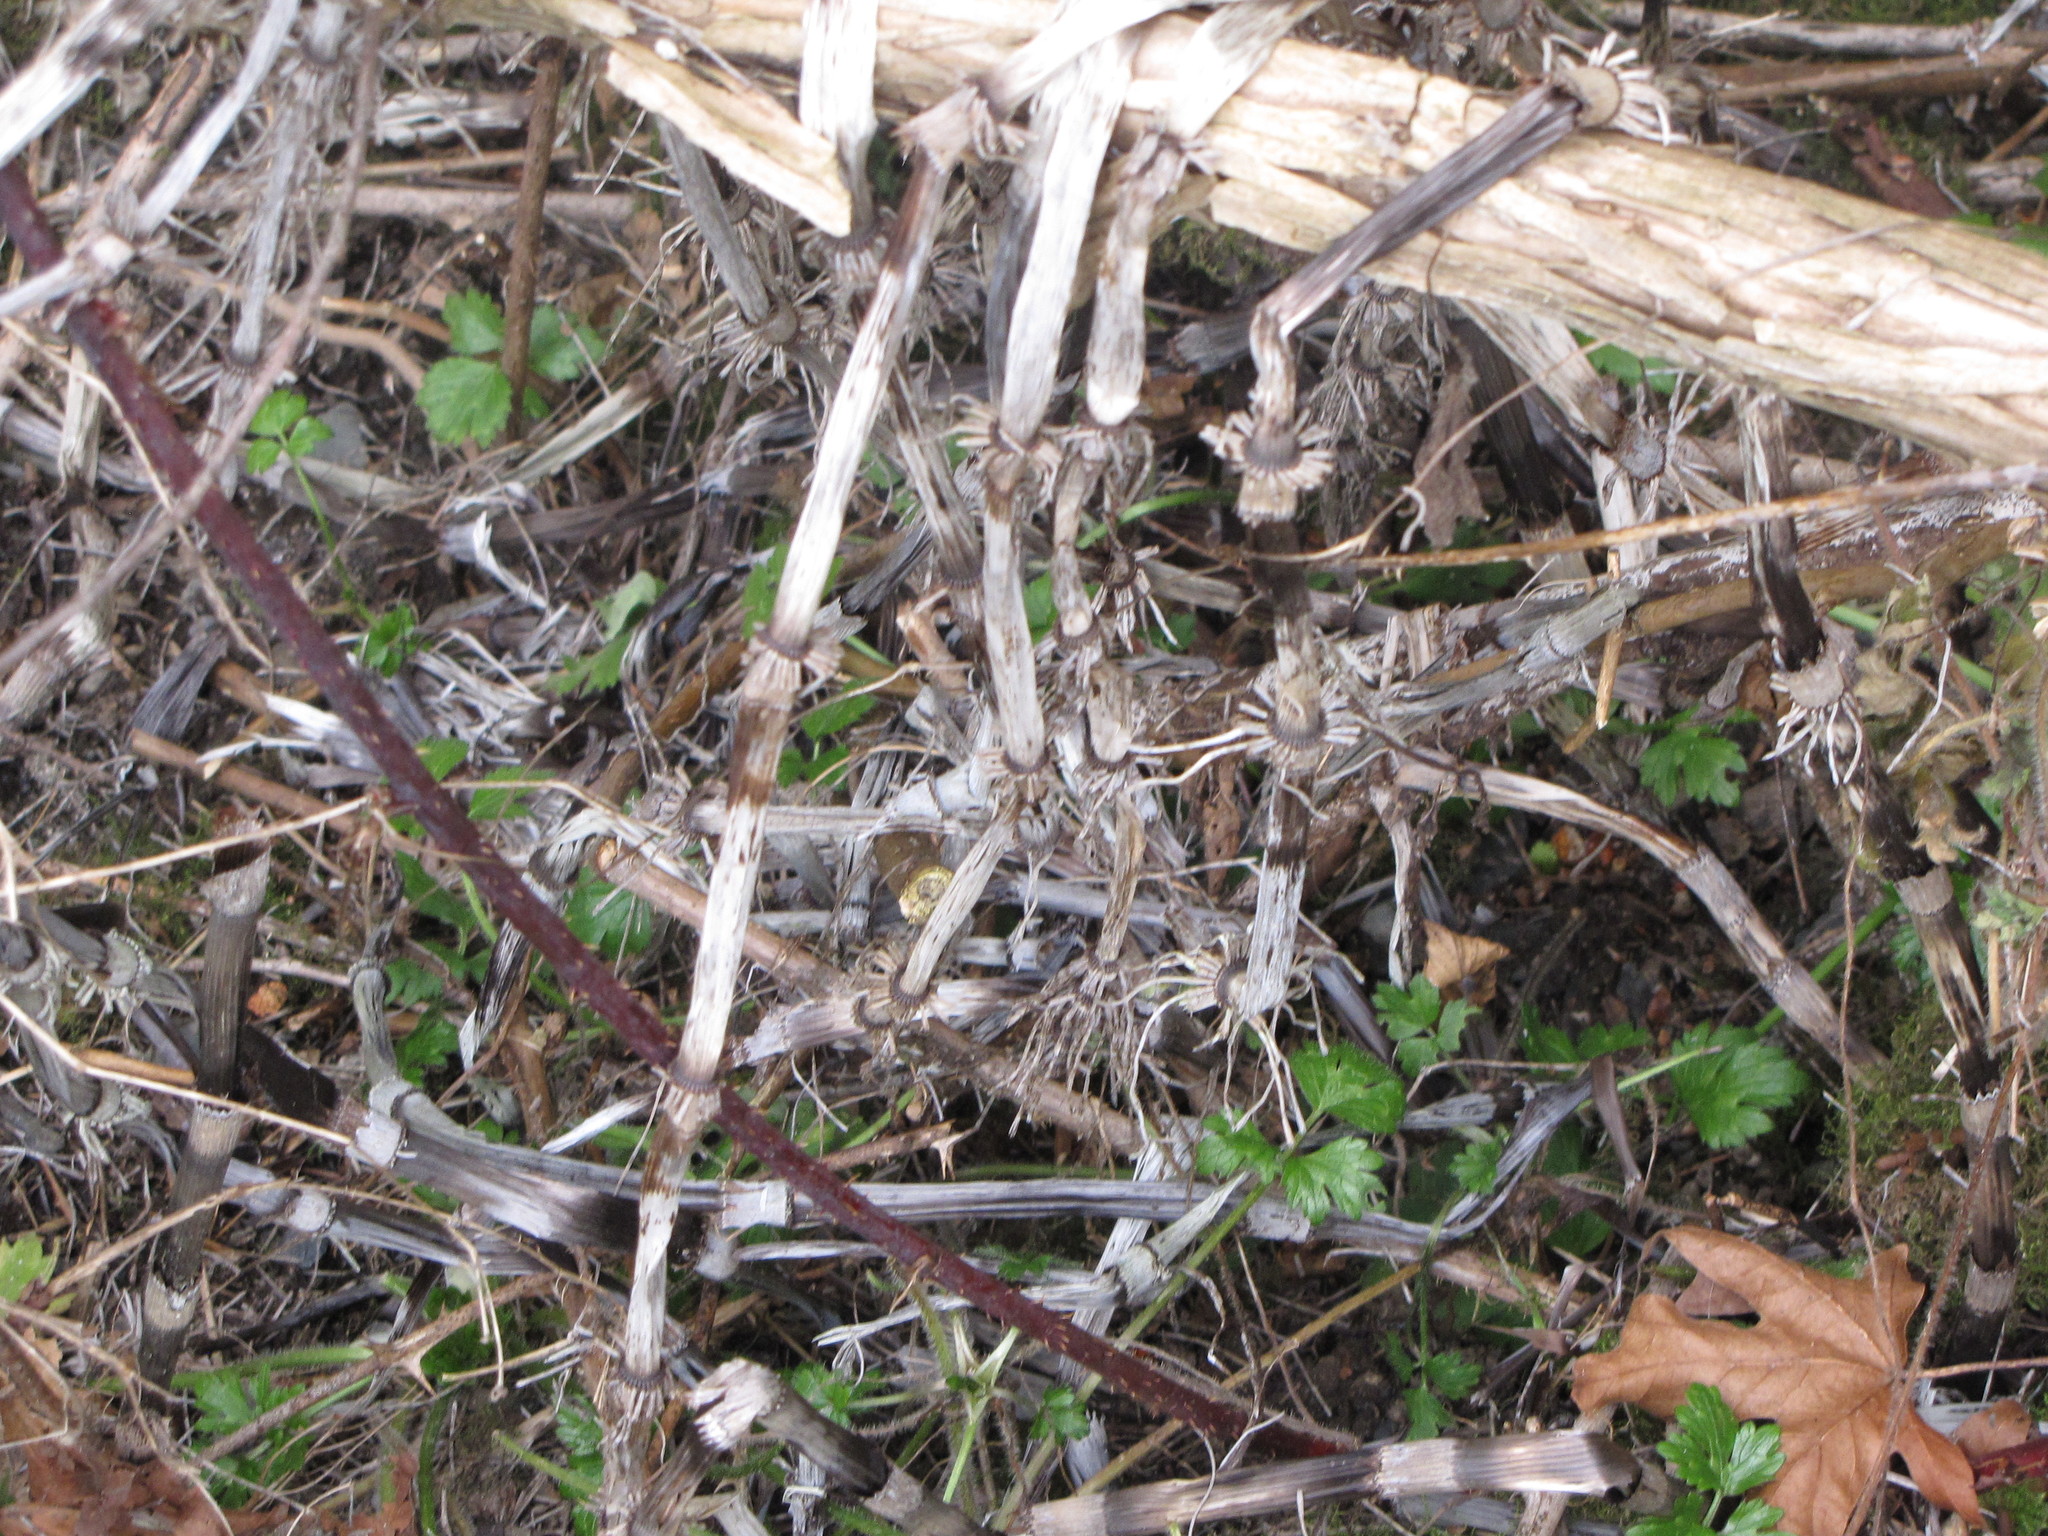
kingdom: Plantae
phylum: Tracheophyta
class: Polypodiopsida
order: Equisetales
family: Equisetaceae
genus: Equisetum
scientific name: Equisetum braunii
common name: Braun's horsetail
